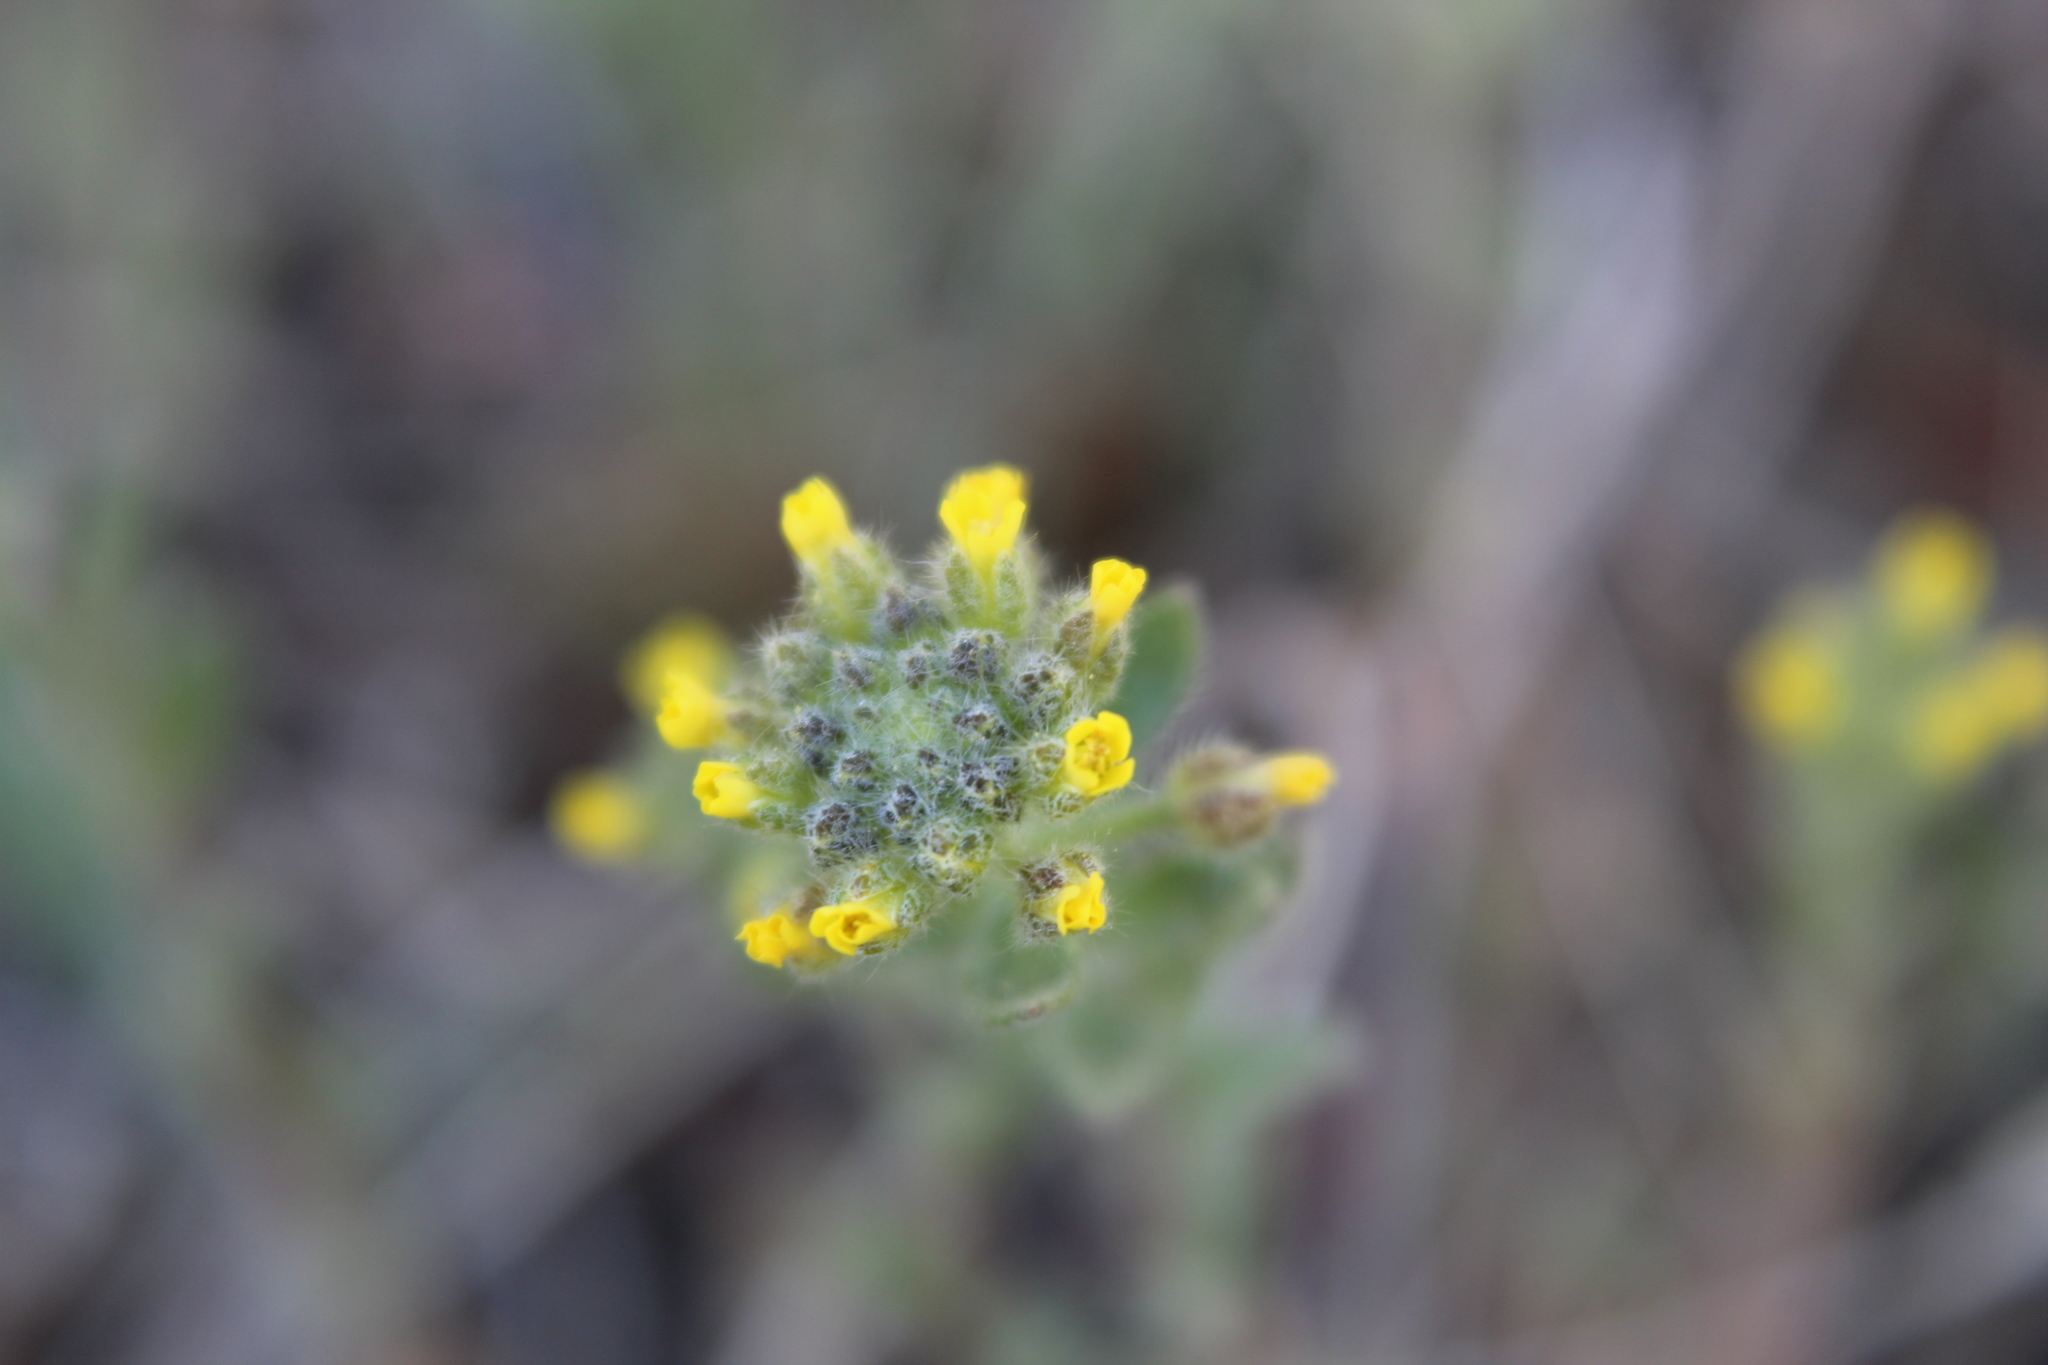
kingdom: Plantae
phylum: Tracheophyta
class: Magnoliopsida
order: Brassicales
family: Brassicaceae
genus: Alyssum
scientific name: Alyssum turkestanicum
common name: Desert alyssum
